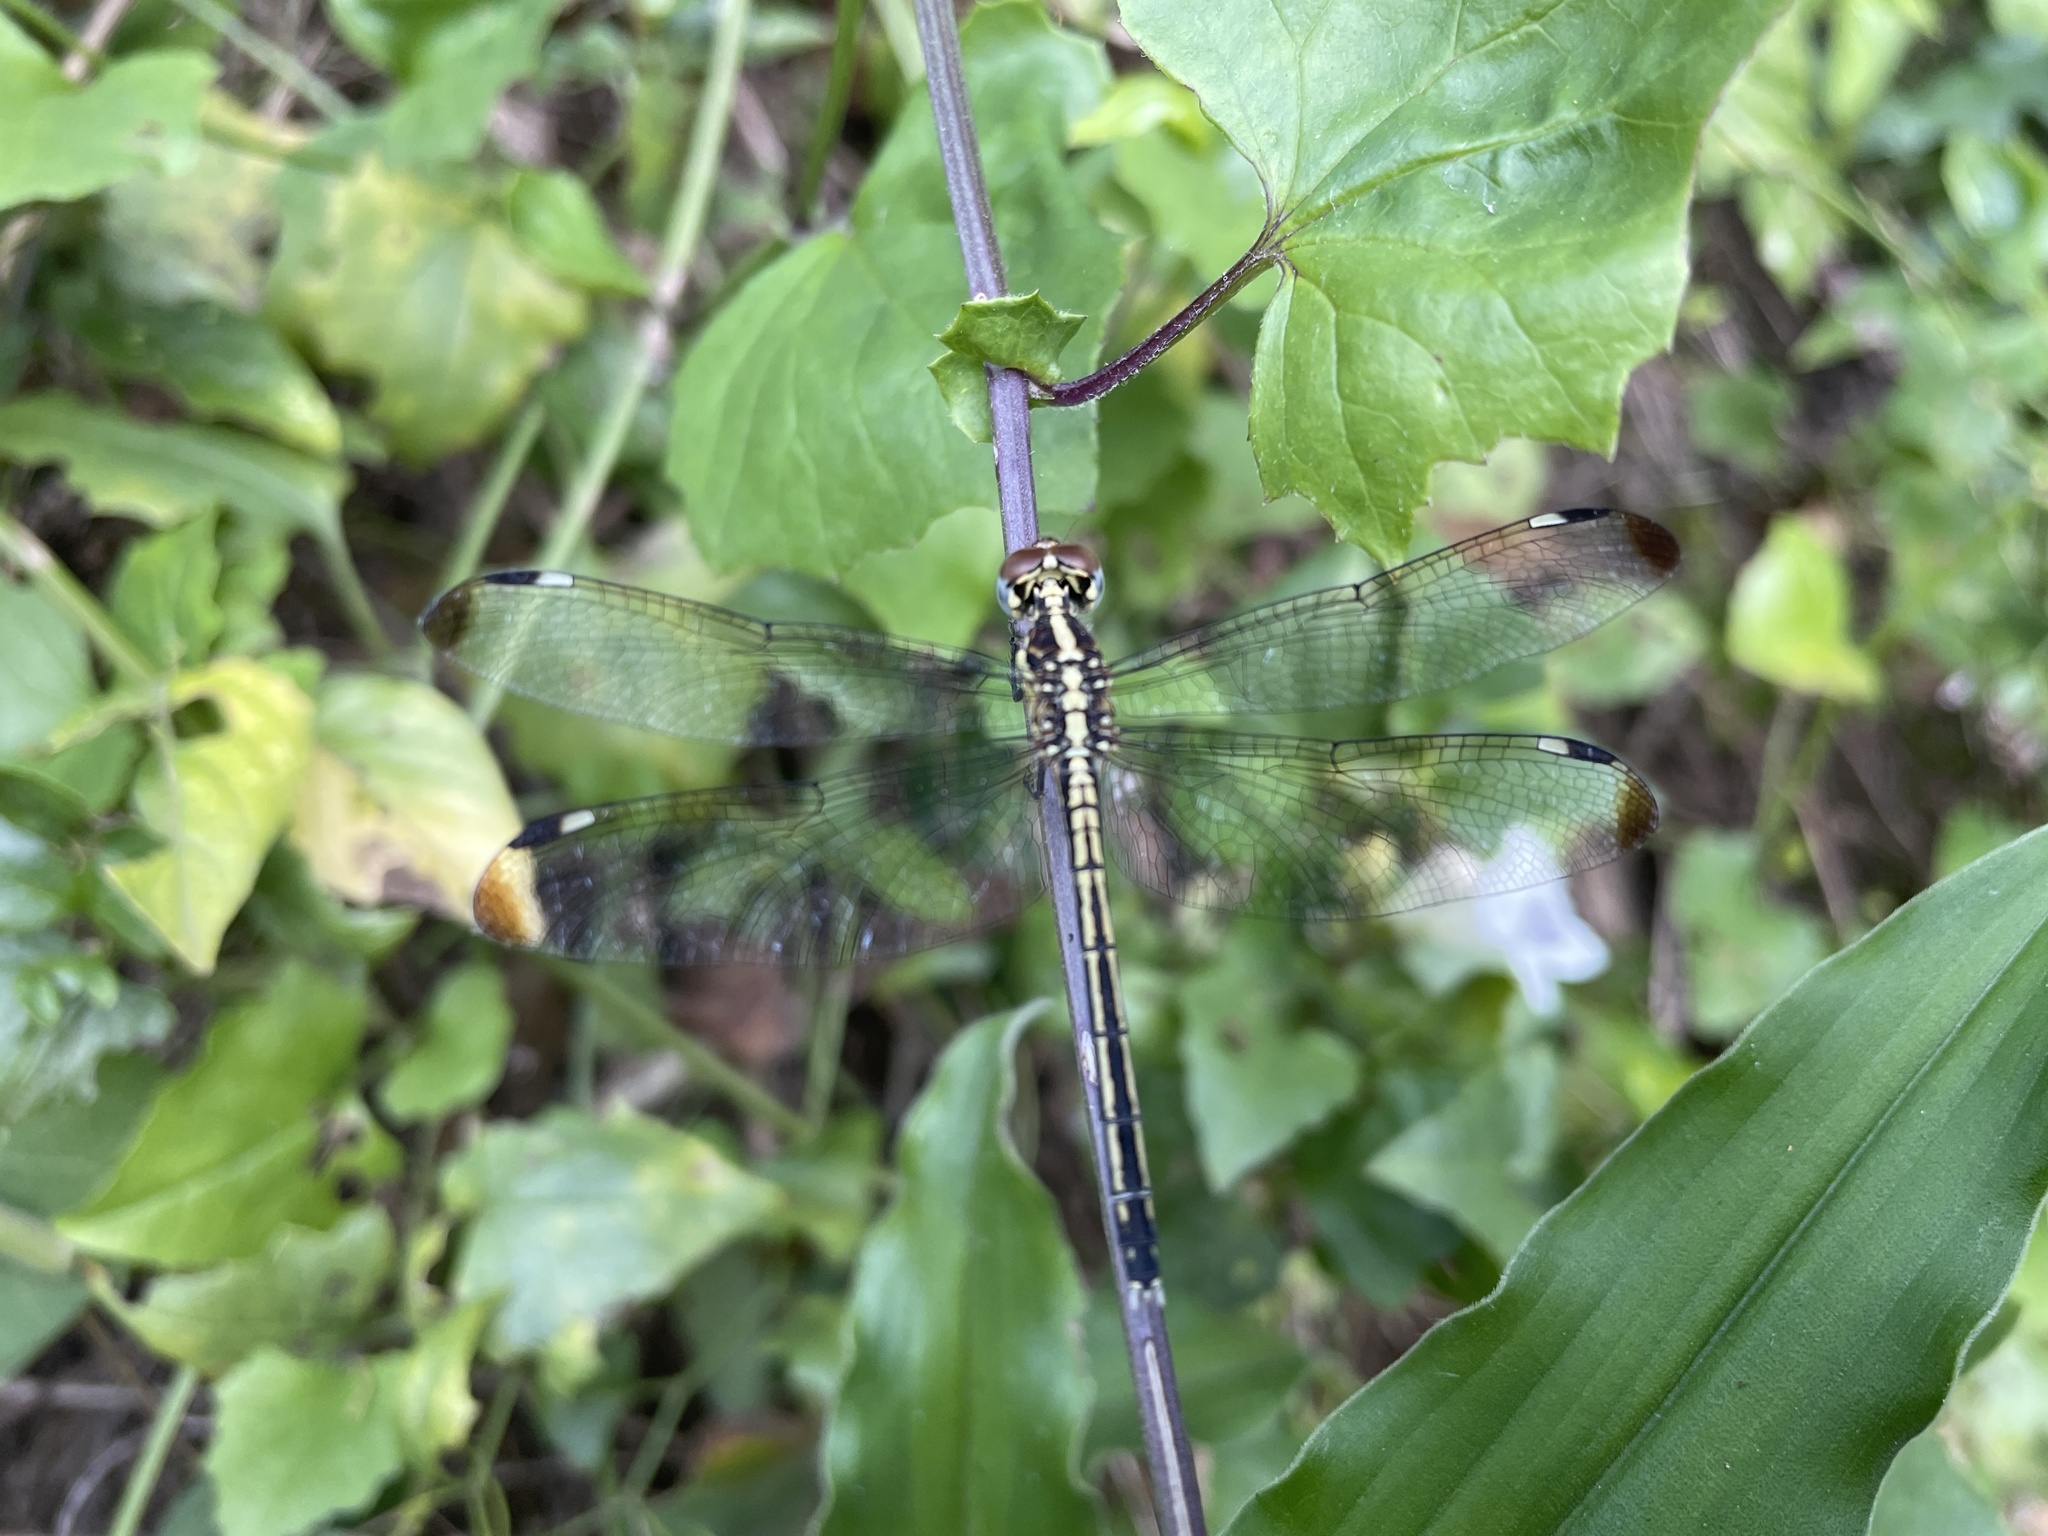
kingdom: Animalia
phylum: Arthropoda
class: Insecta
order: Odonata
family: Libellulidae
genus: Hemistigma
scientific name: Hemistigma albipunctum
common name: African pied-spot
